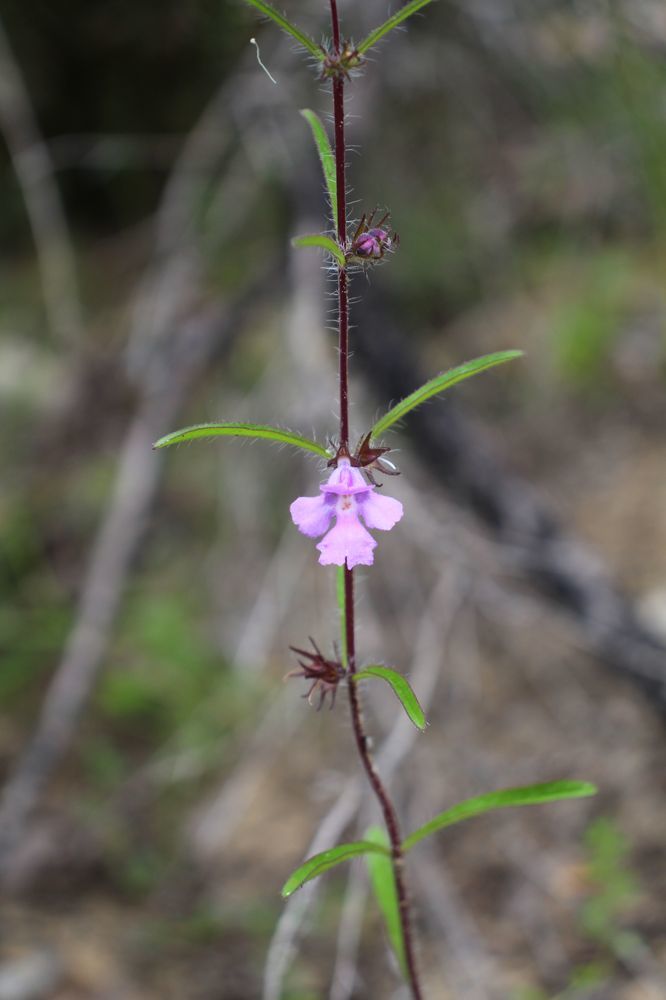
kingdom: Plantae
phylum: Tracheophyta
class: Magnoliopsida
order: Lamiales
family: Lamiaceae
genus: Hemigenia
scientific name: Hemigenia pritzelii
